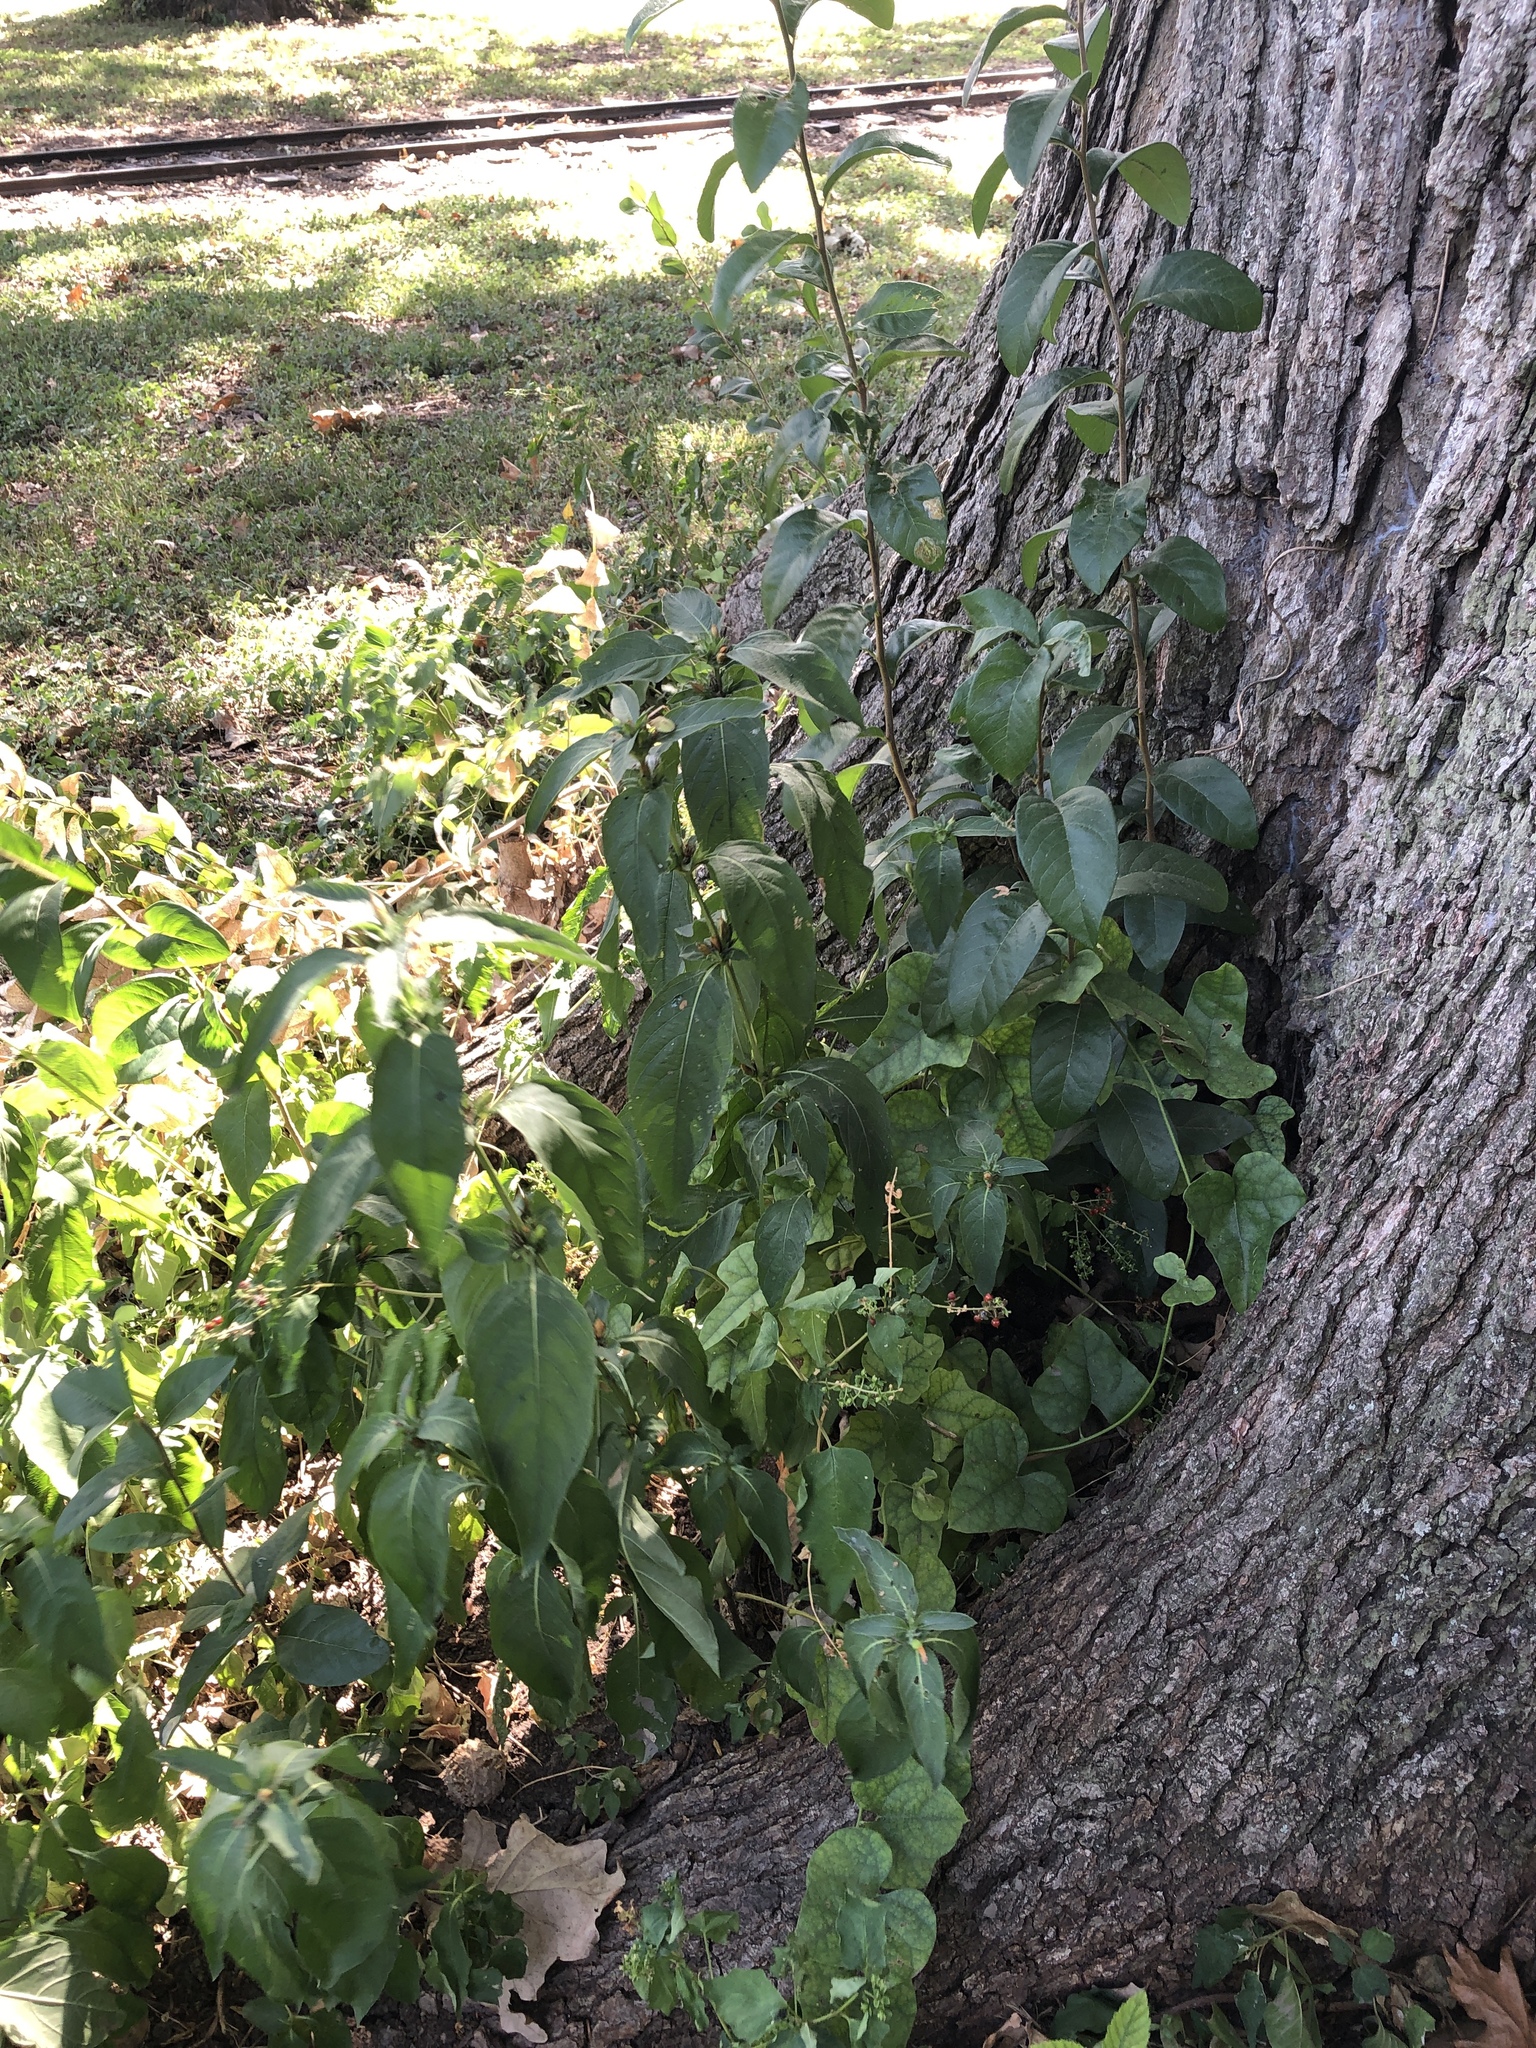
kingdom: Plantae
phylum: Tracheophyta
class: Magnoliopsida
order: Lamiales
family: Acanthaceae
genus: Ruellia
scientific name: Ruellia strepens
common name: Limestone wild petunia
